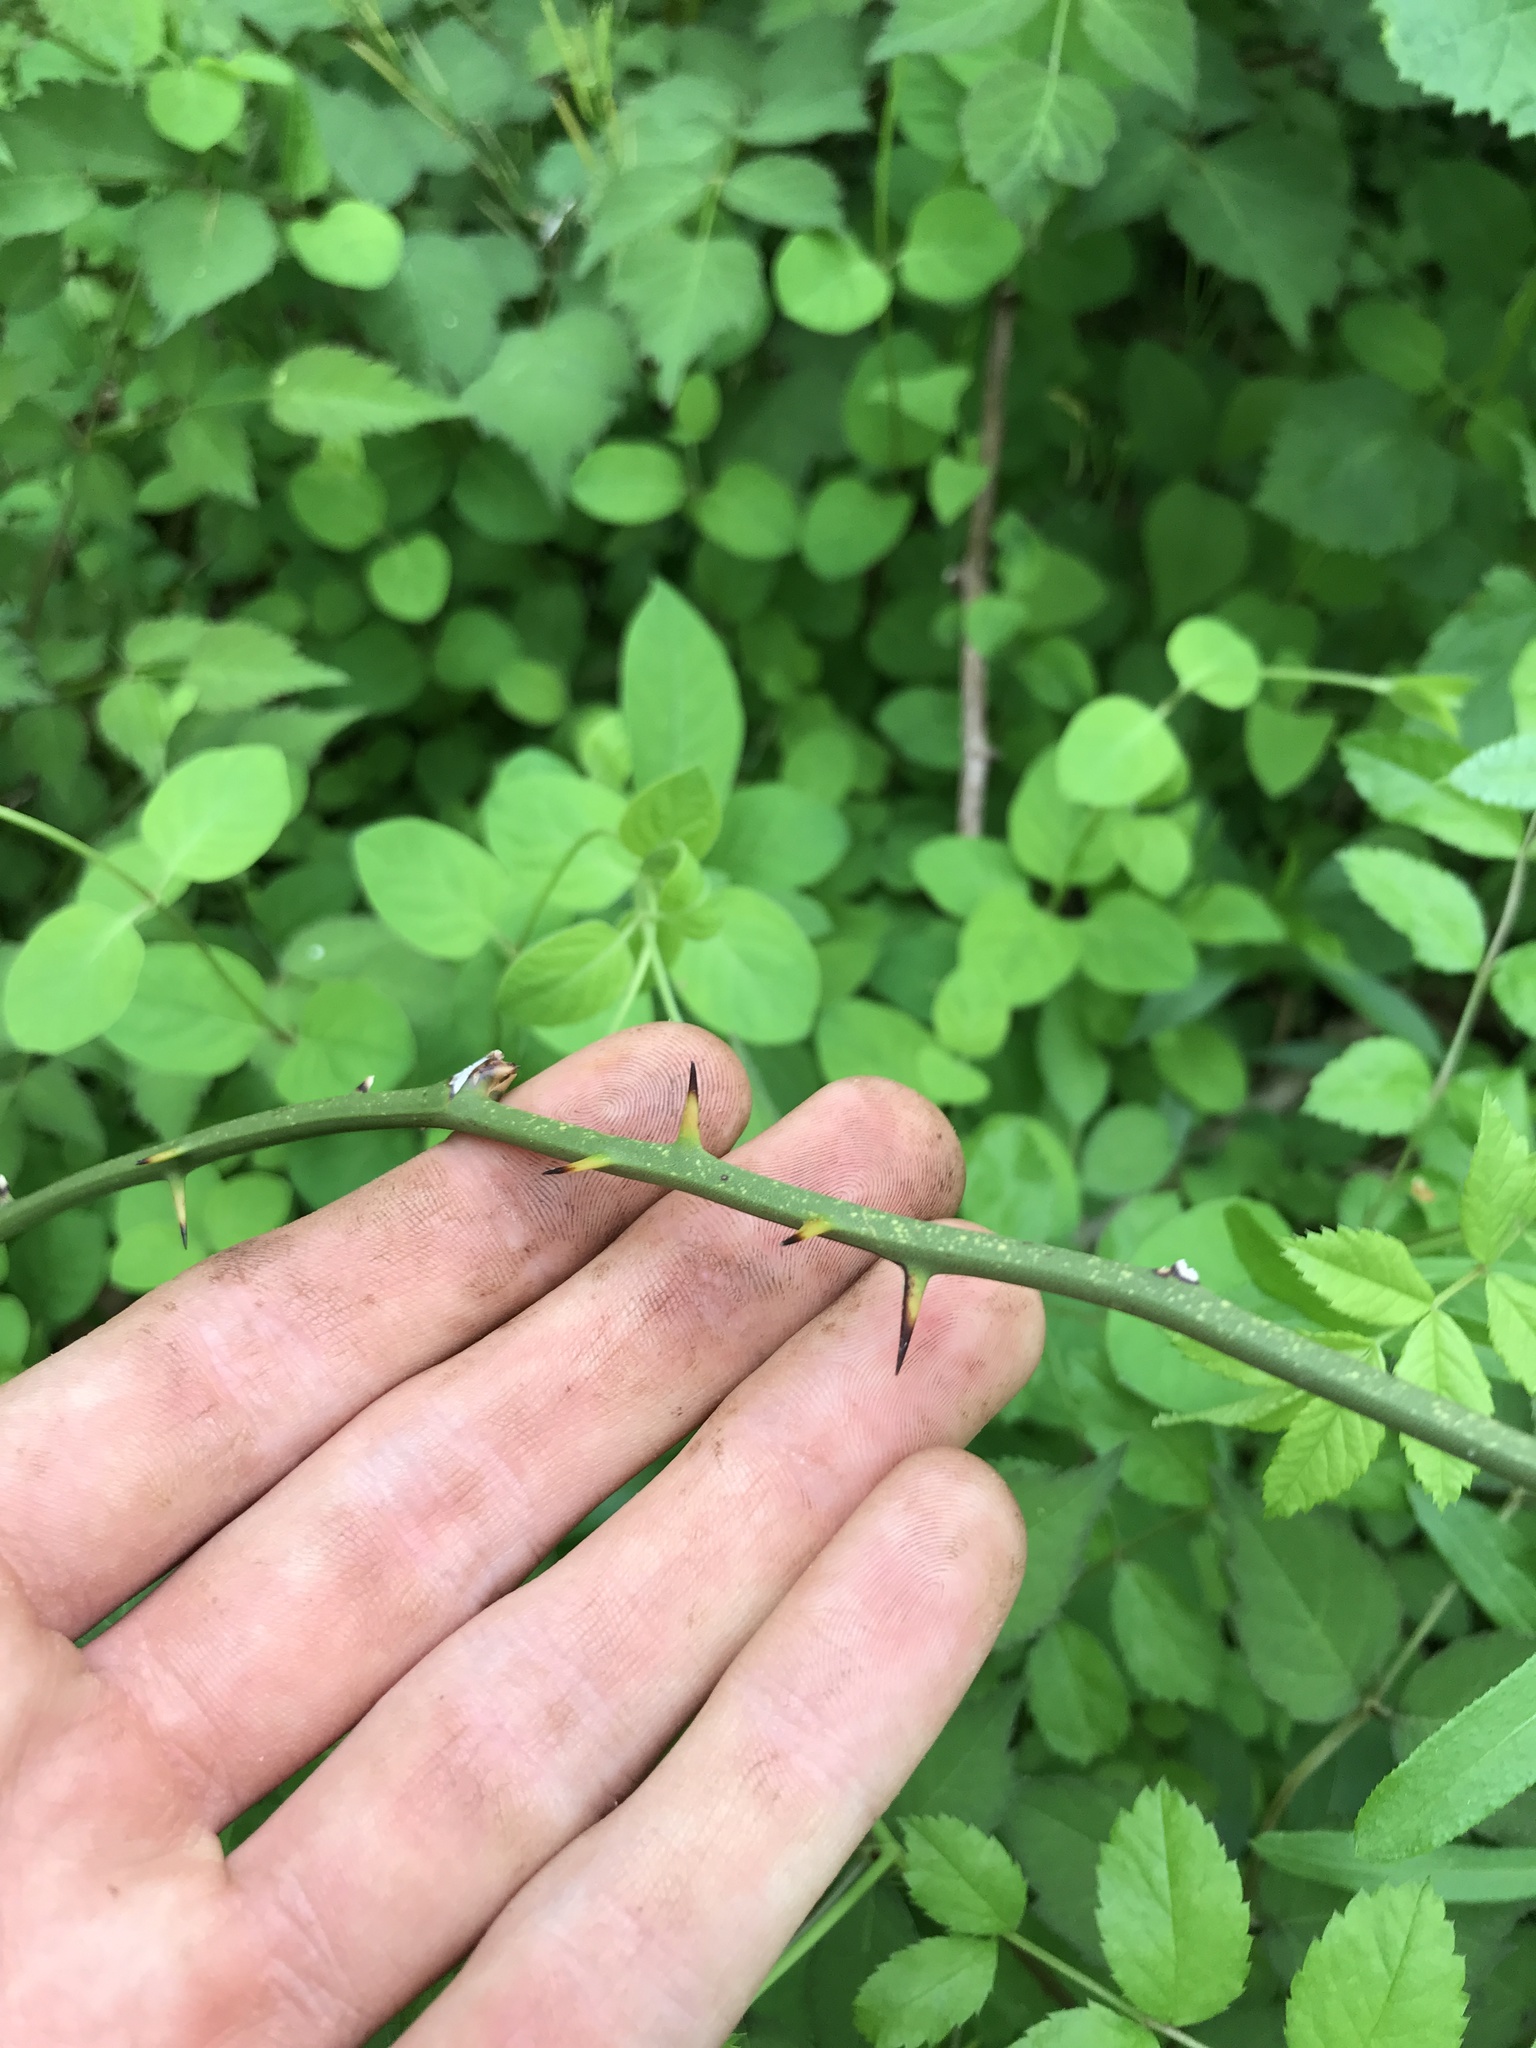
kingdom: Plantae
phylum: Tracheophyta
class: Liliopsida
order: Liliales
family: Smilacaceae
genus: Smilax
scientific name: Smilax rotundifolia
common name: Bullbriar
